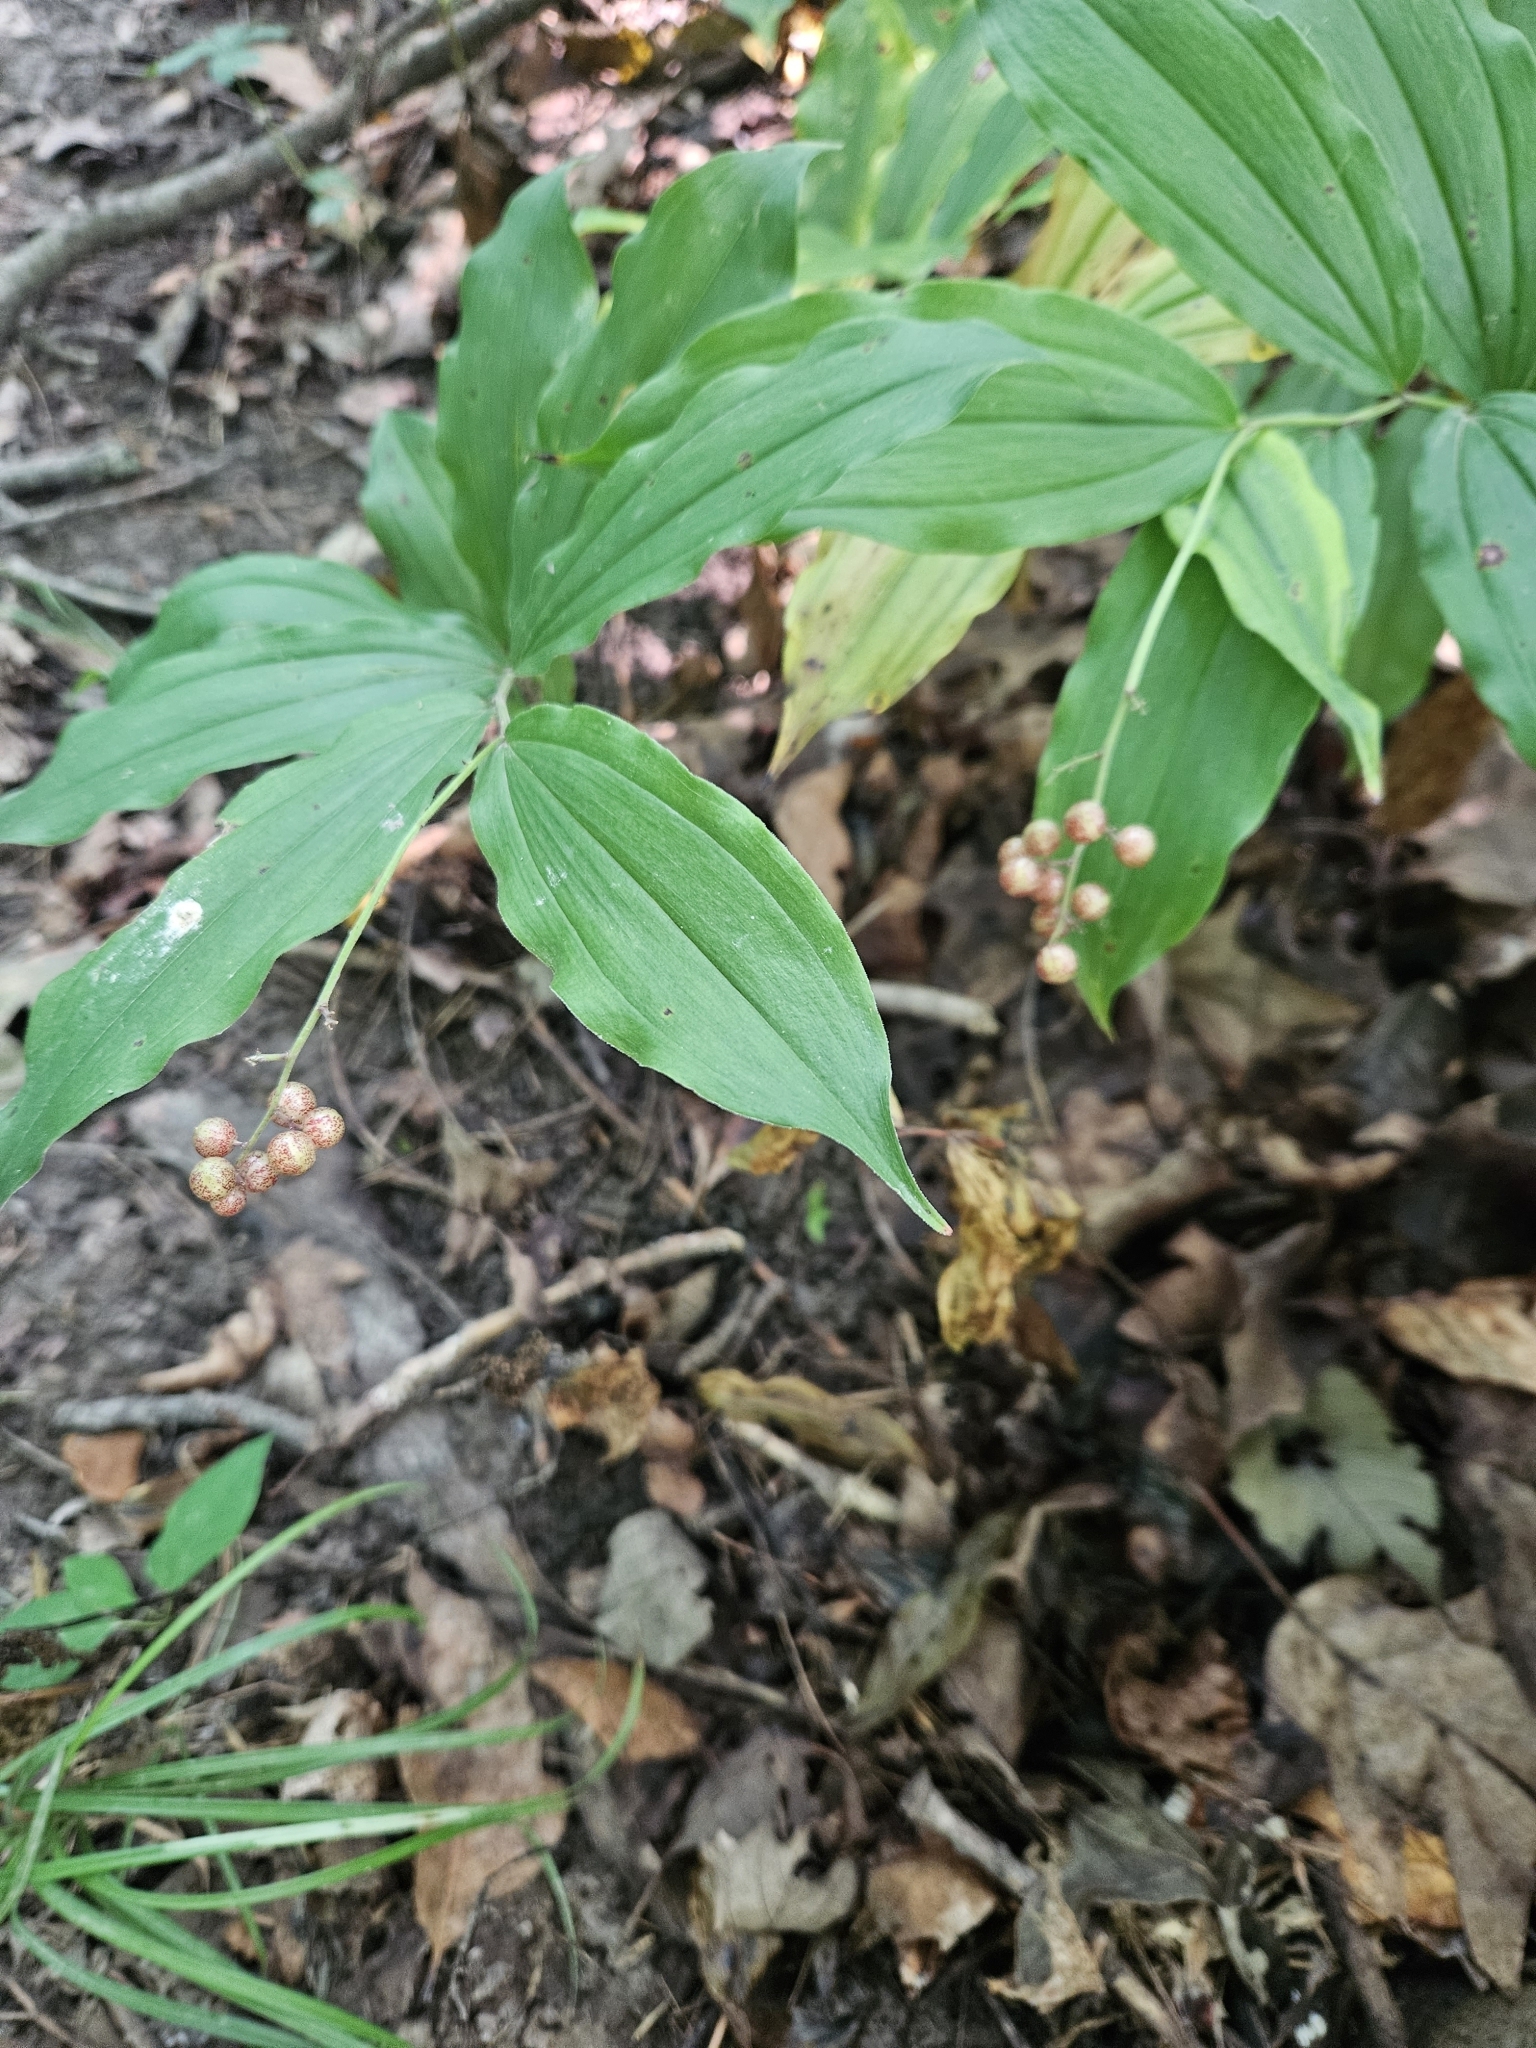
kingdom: Plantae
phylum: Tracheophyta
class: Liliopsida
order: Asparagales
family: Asparagaceae
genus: Maianthemum
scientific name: Maianthemum racemosum
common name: False spikenard
